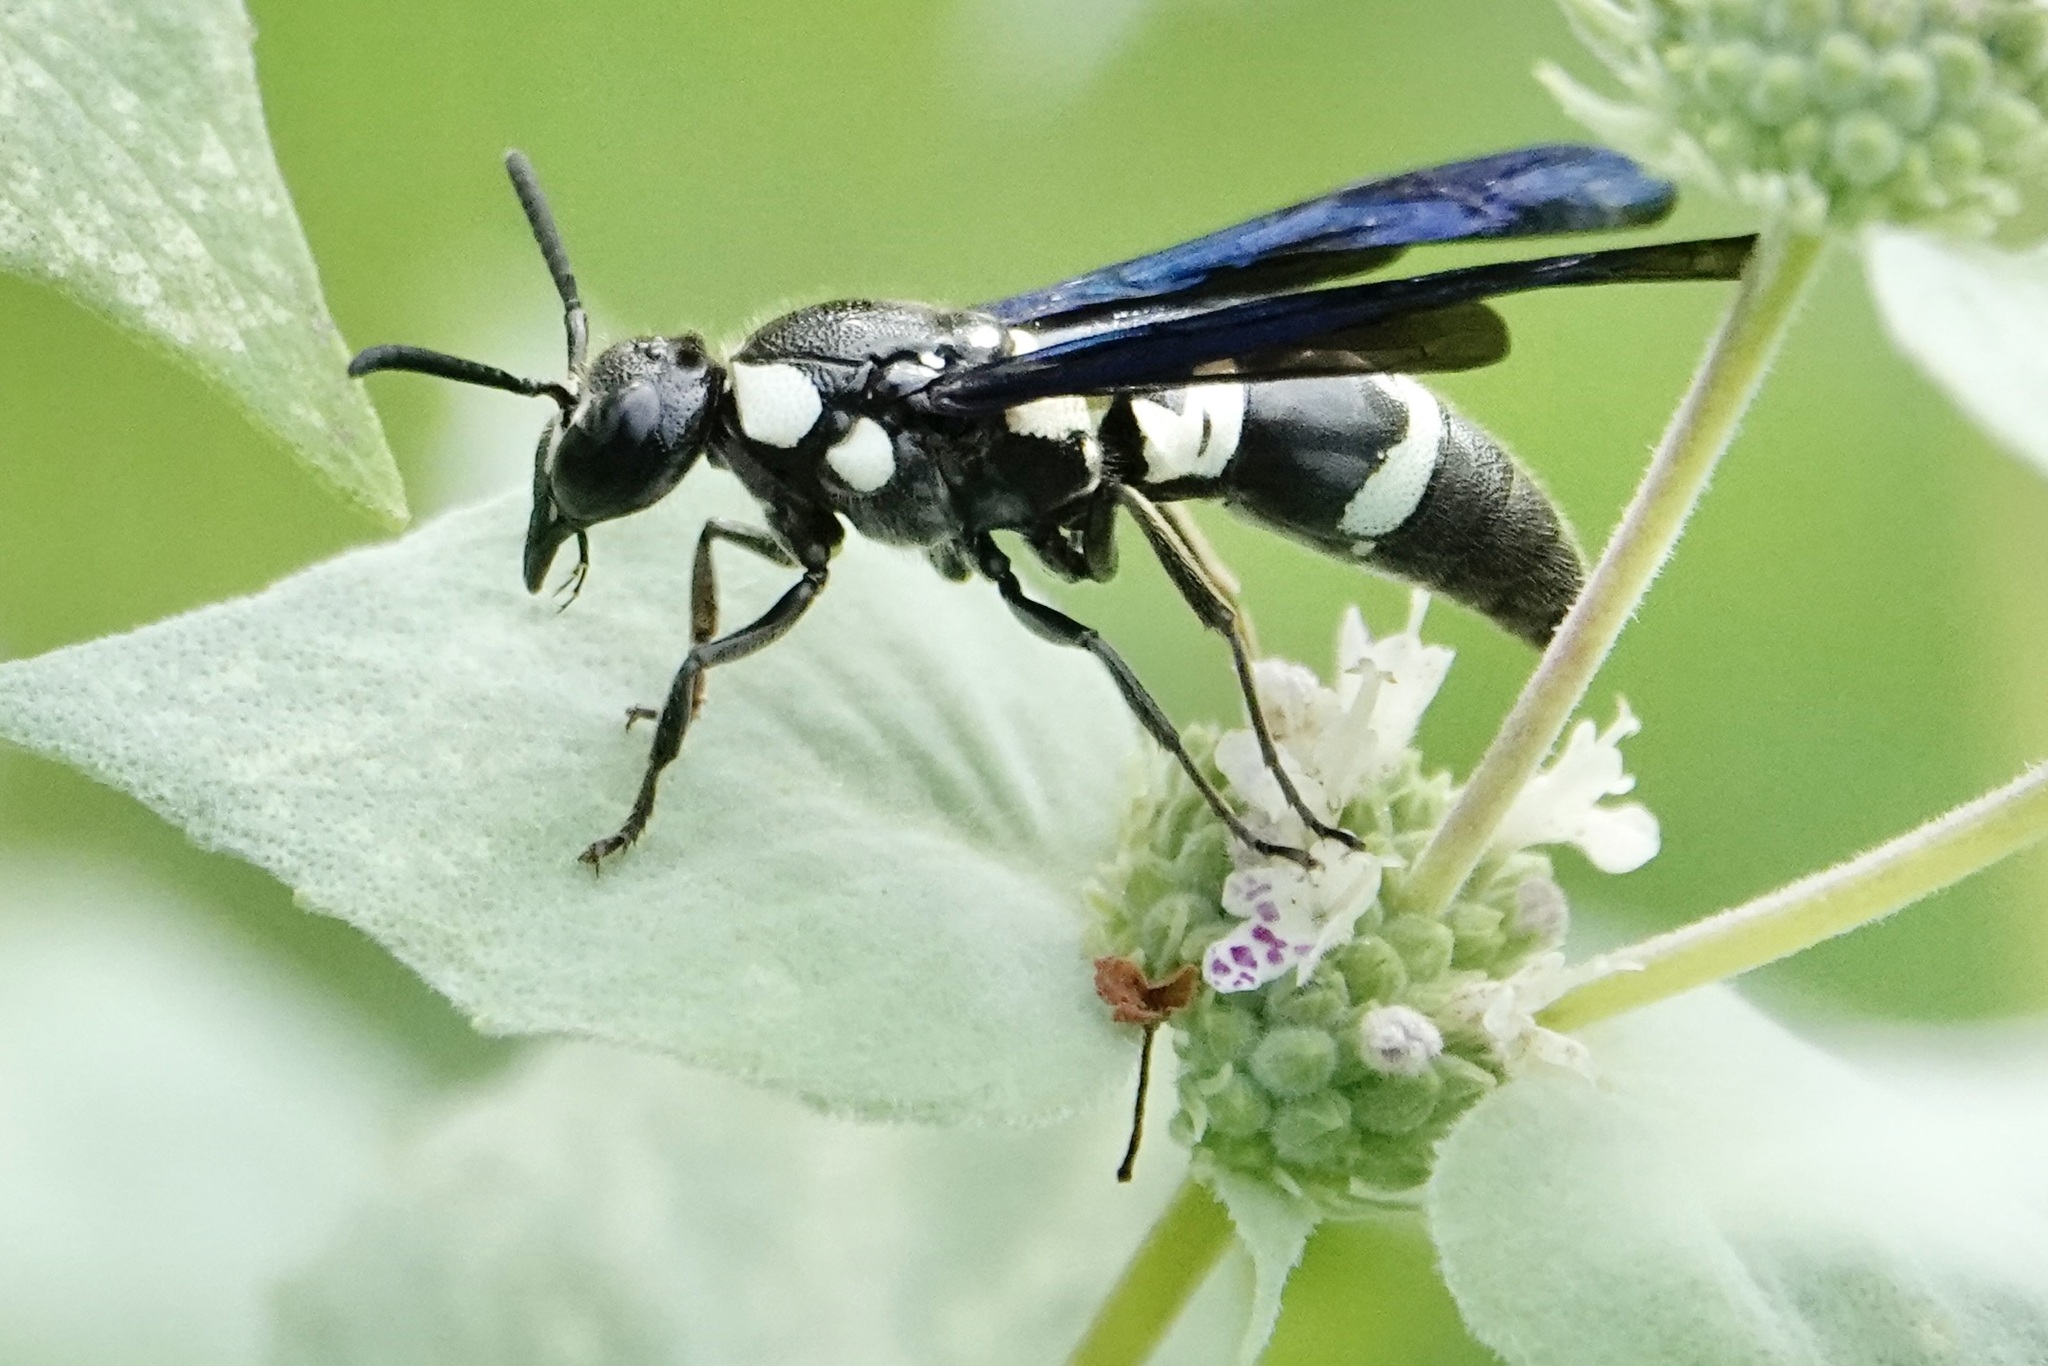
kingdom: Animalia
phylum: Arthropoda
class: Insecta
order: Hymenoptera
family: Eumenidae
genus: Pseudodynerus
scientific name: Pseudodynerus quadrisectus
